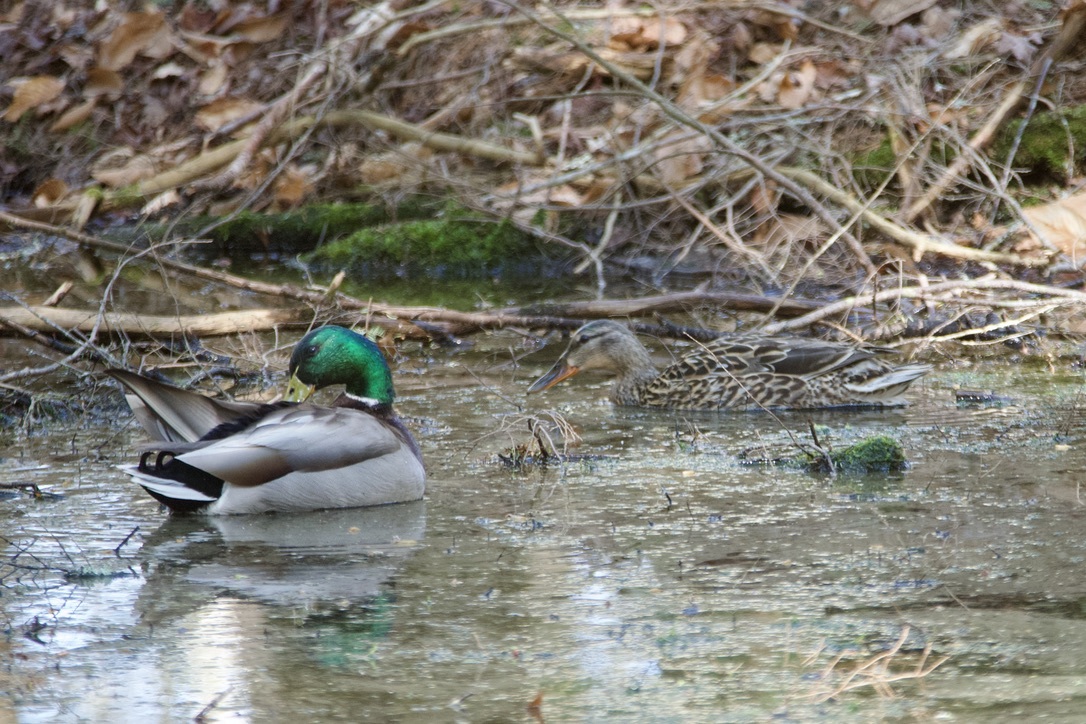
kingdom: Animalia
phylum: Chordata
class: Aves
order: Anseriformes
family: Anatidae
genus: Anas
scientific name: Anas platyrhynchos
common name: Mallard
